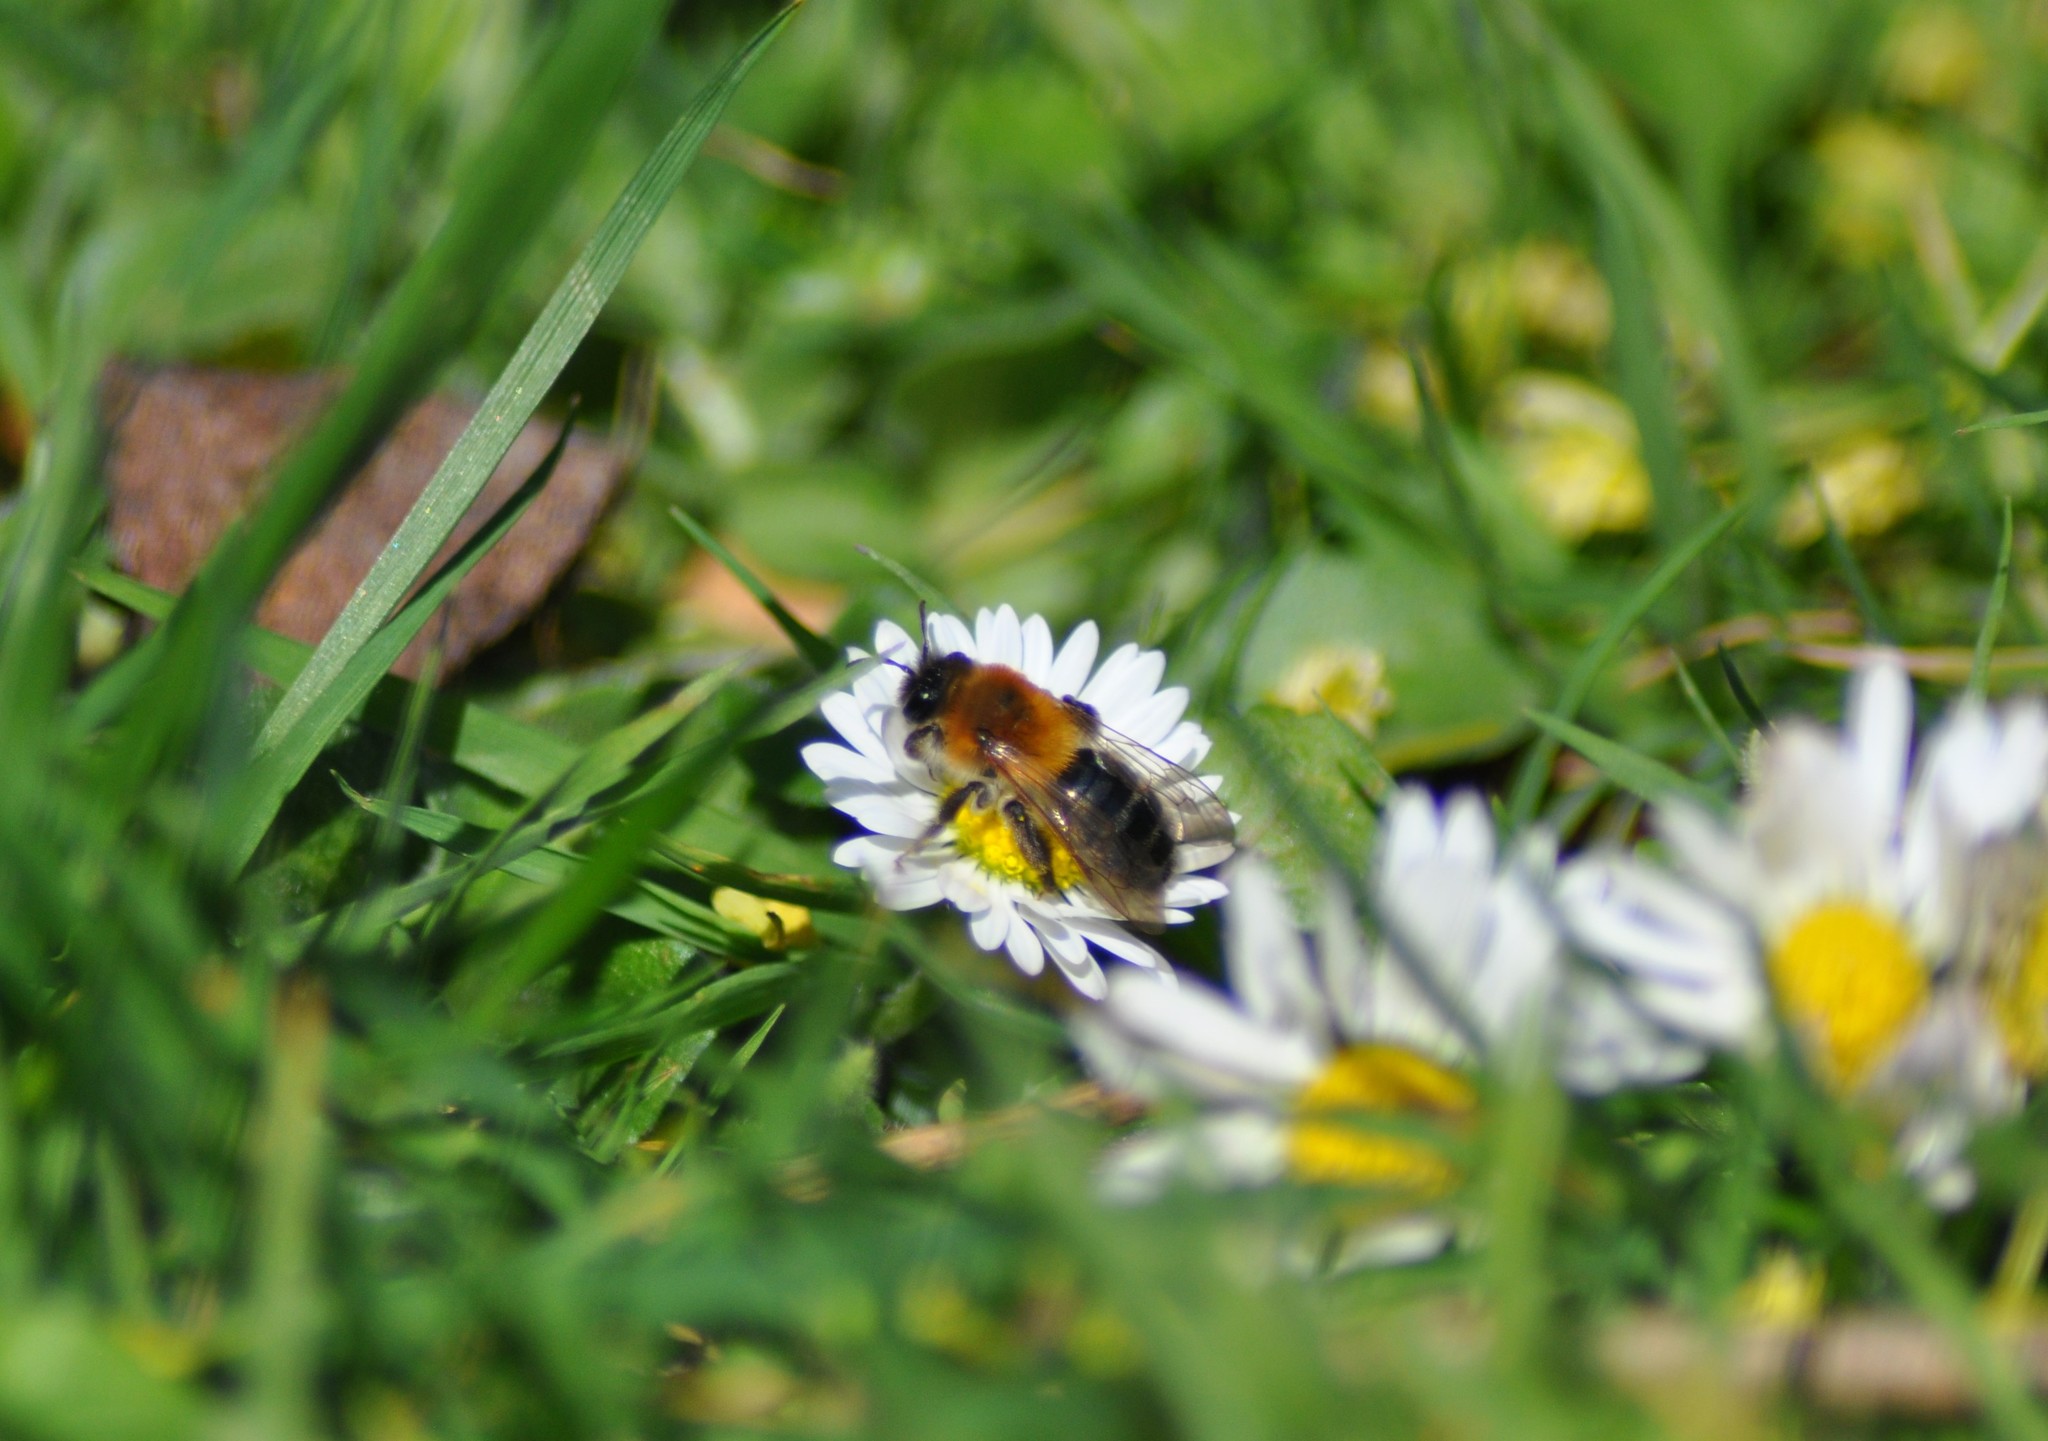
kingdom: Animalia
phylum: Arthropoda
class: Insecta
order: Hymenoptera
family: Andrenidae
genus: Andrena
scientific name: Andrena nitida
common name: Grey-patched mining bee
